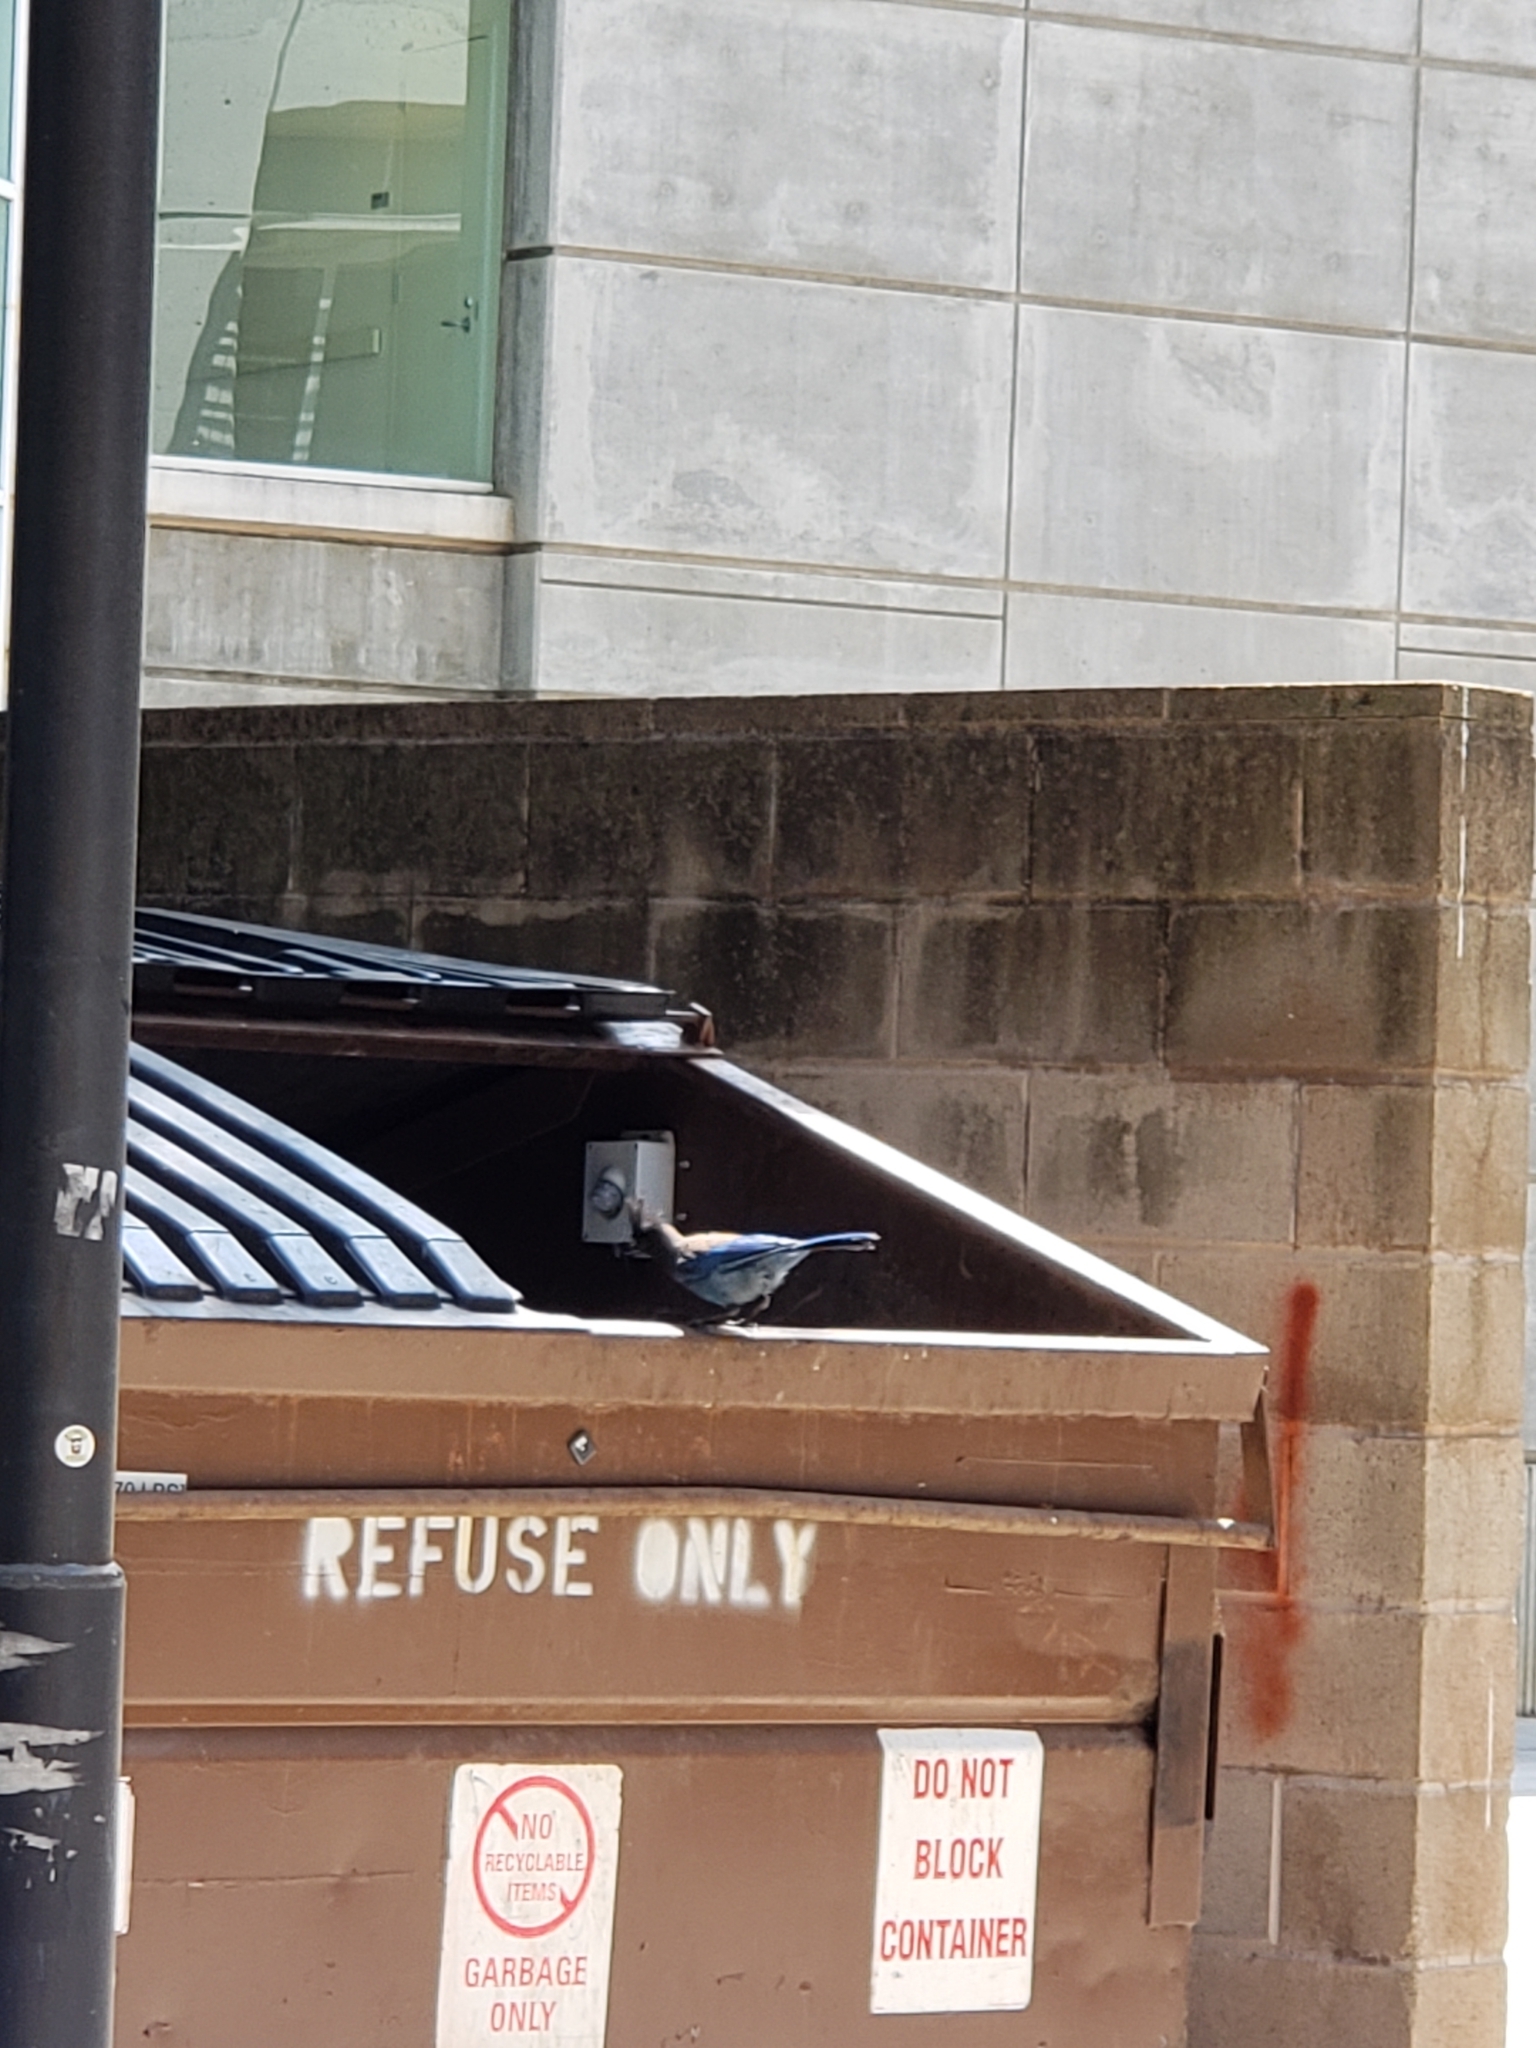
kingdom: Animalia
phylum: Chordata
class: Aves
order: Passeriformes
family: Corvidae
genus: Cyanocitta
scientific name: Cyanocitta stelleri
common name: Steller's jay
